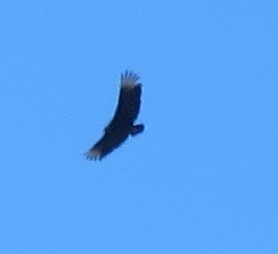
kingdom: Animalia
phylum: Chordata
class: Aves
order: Accipitriformes
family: Cathartidae
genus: Coragyps
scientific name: Coragyps atratus
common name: Black vulture
